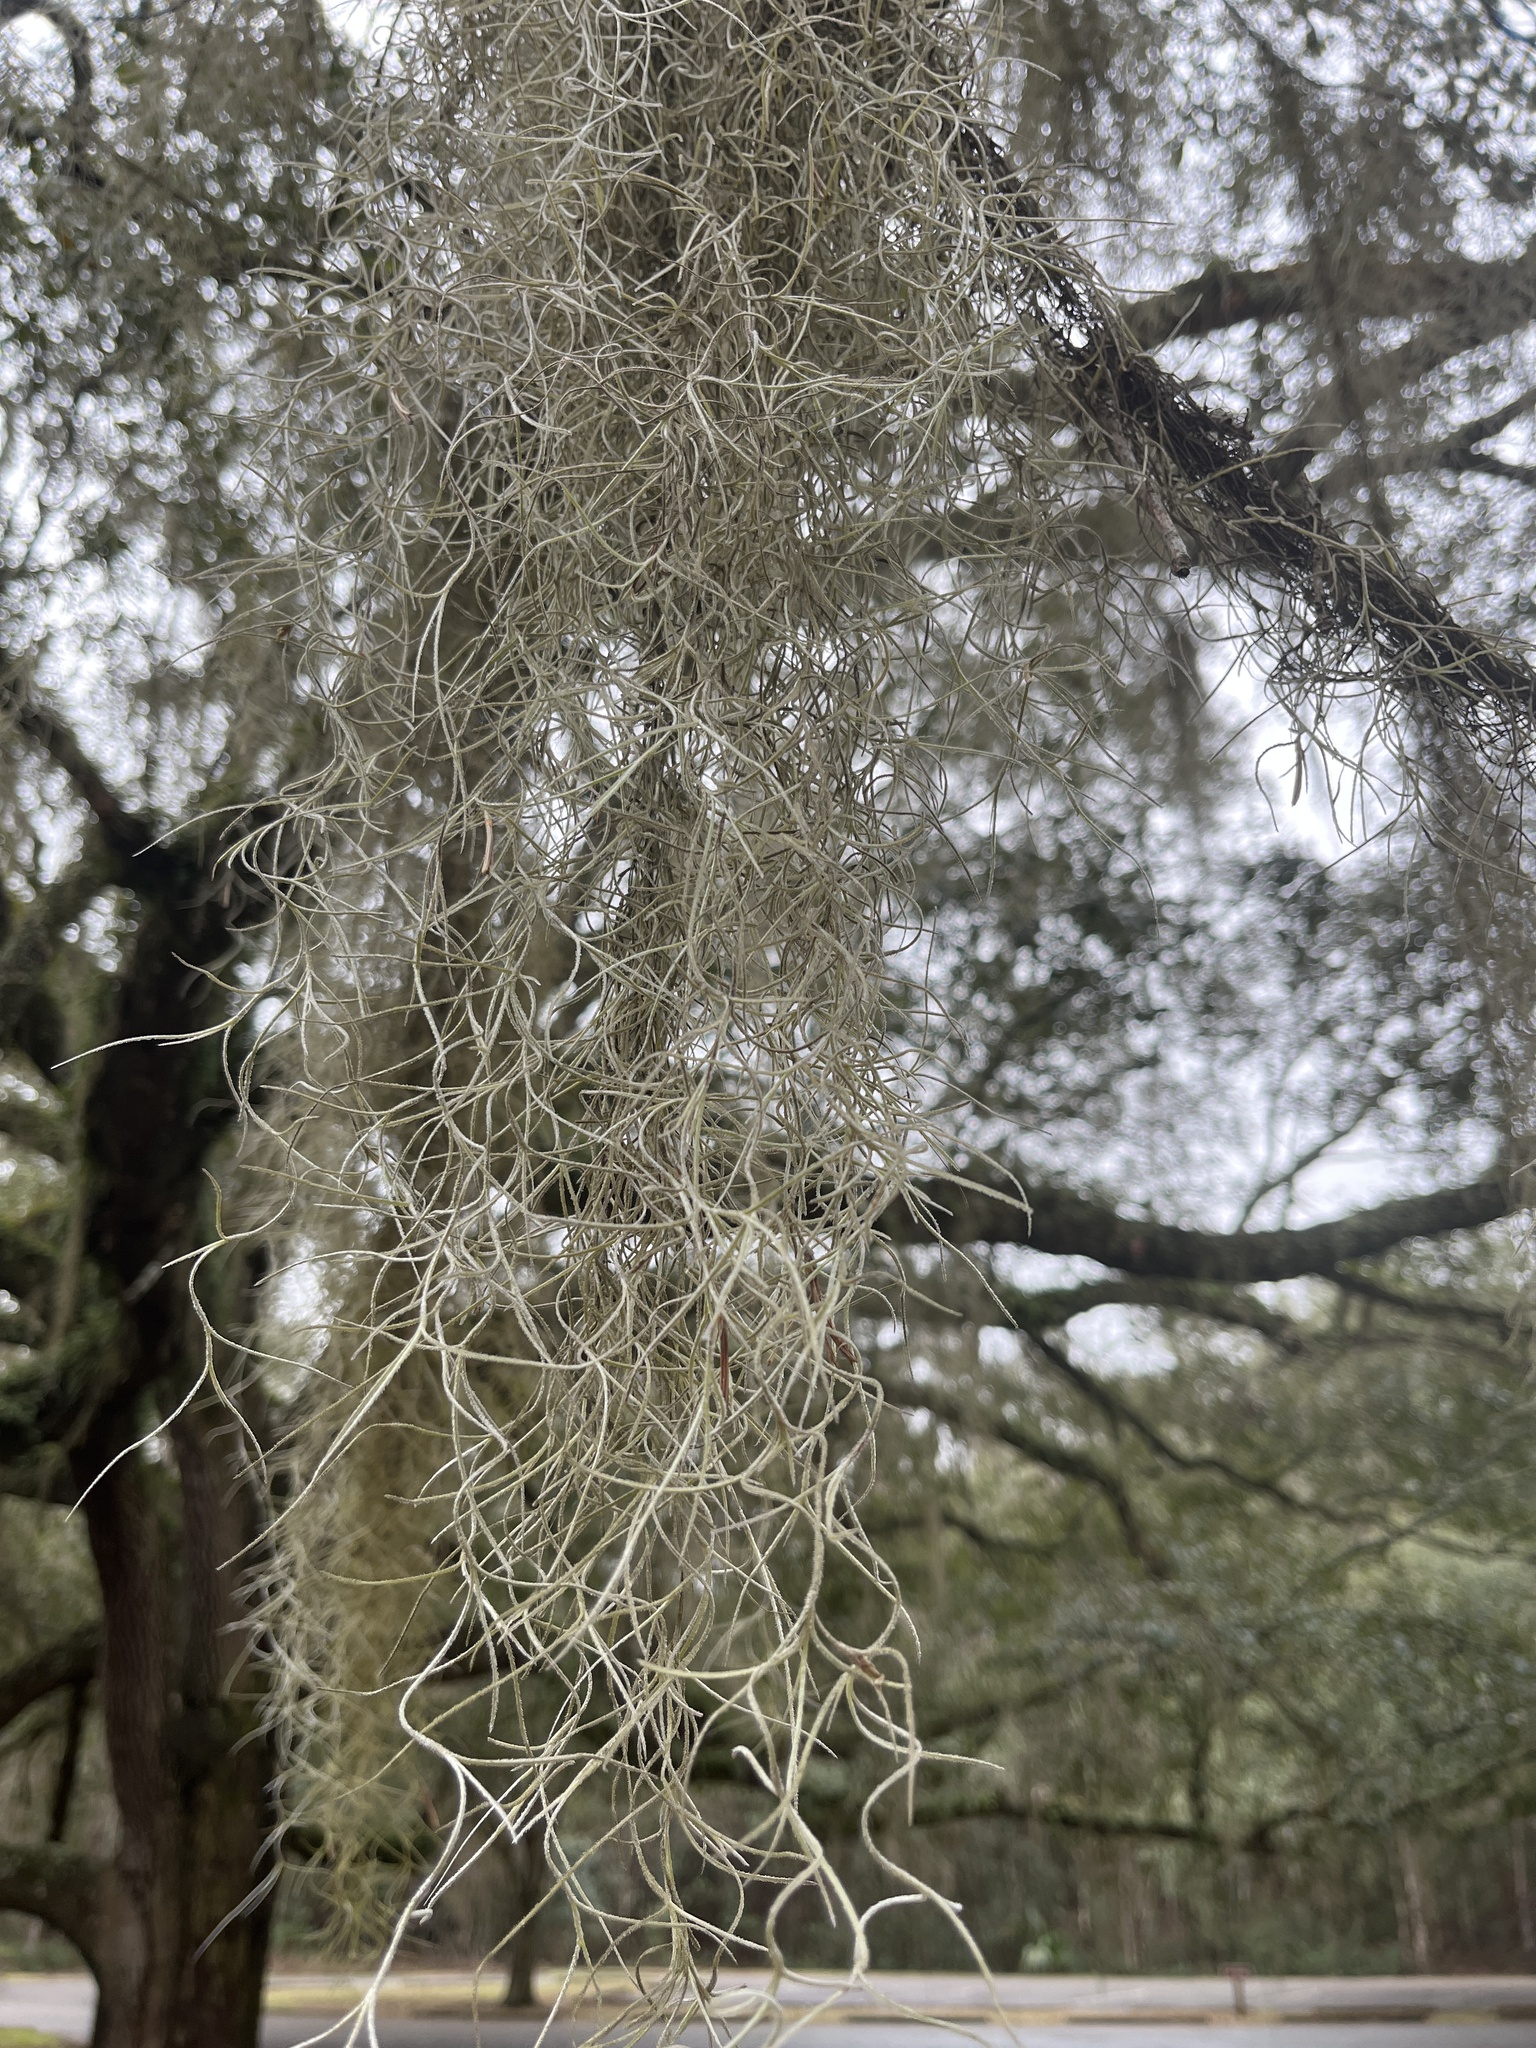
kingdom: Plantae
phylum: Tracheophyta
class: Liliopsida
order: Poales
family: Bromeliaceae
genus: Tillandsia
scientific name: Tillandsia usneoides
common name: Spanish moss
